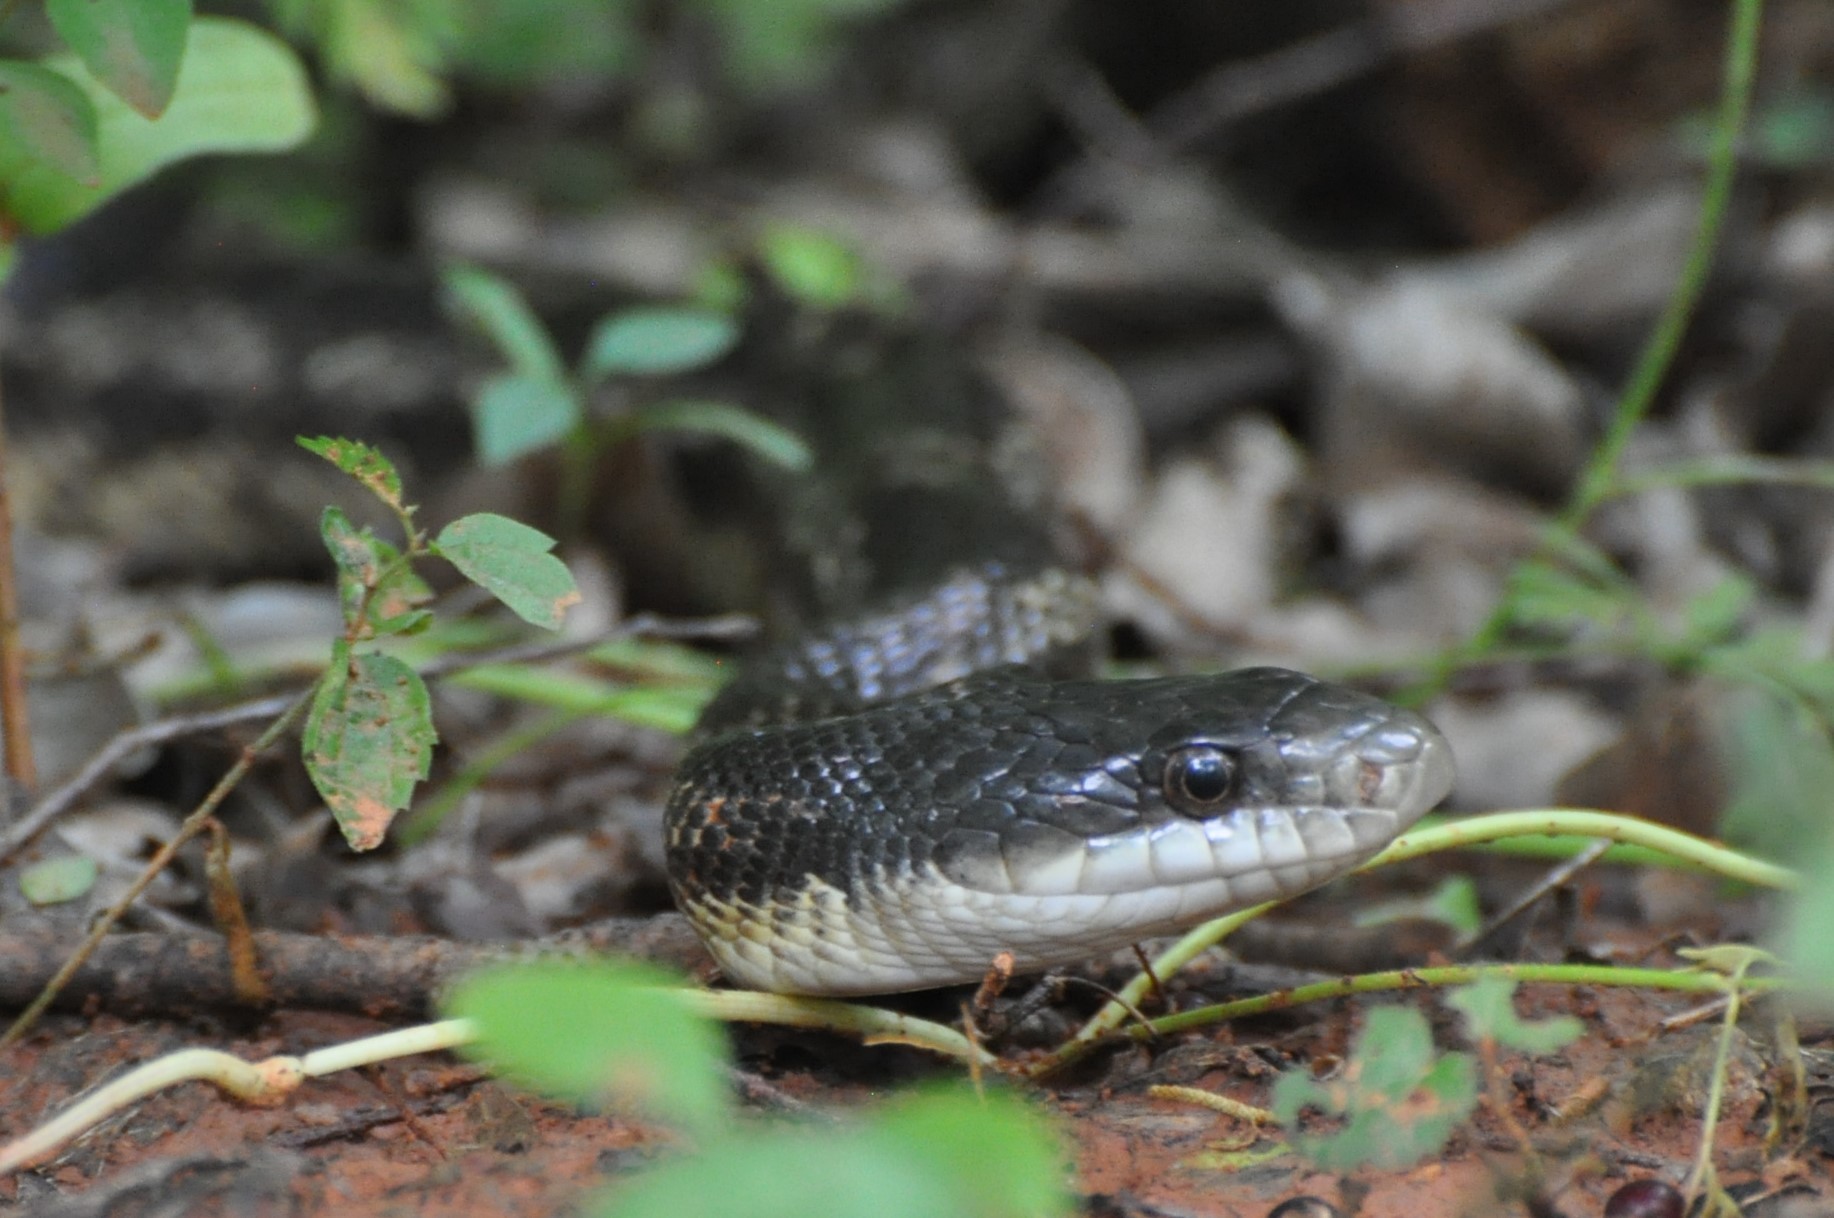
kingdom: Animalia
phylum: Chordata
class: Squamata
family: Colubridae
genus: Pantherophis
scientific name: Pantherophis obsoletus
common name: Black rat snake
